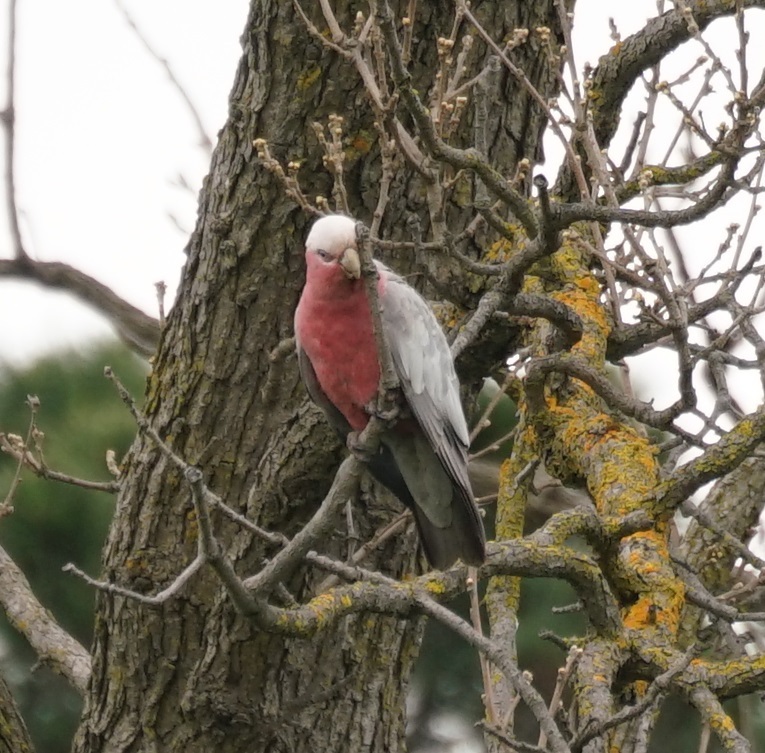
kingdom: Animalia
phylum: Chordata
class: Aves
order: Psittaciformes
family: Psittacidae
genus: Eolophus
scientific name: Eolophus roseicapilla
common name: Galah
